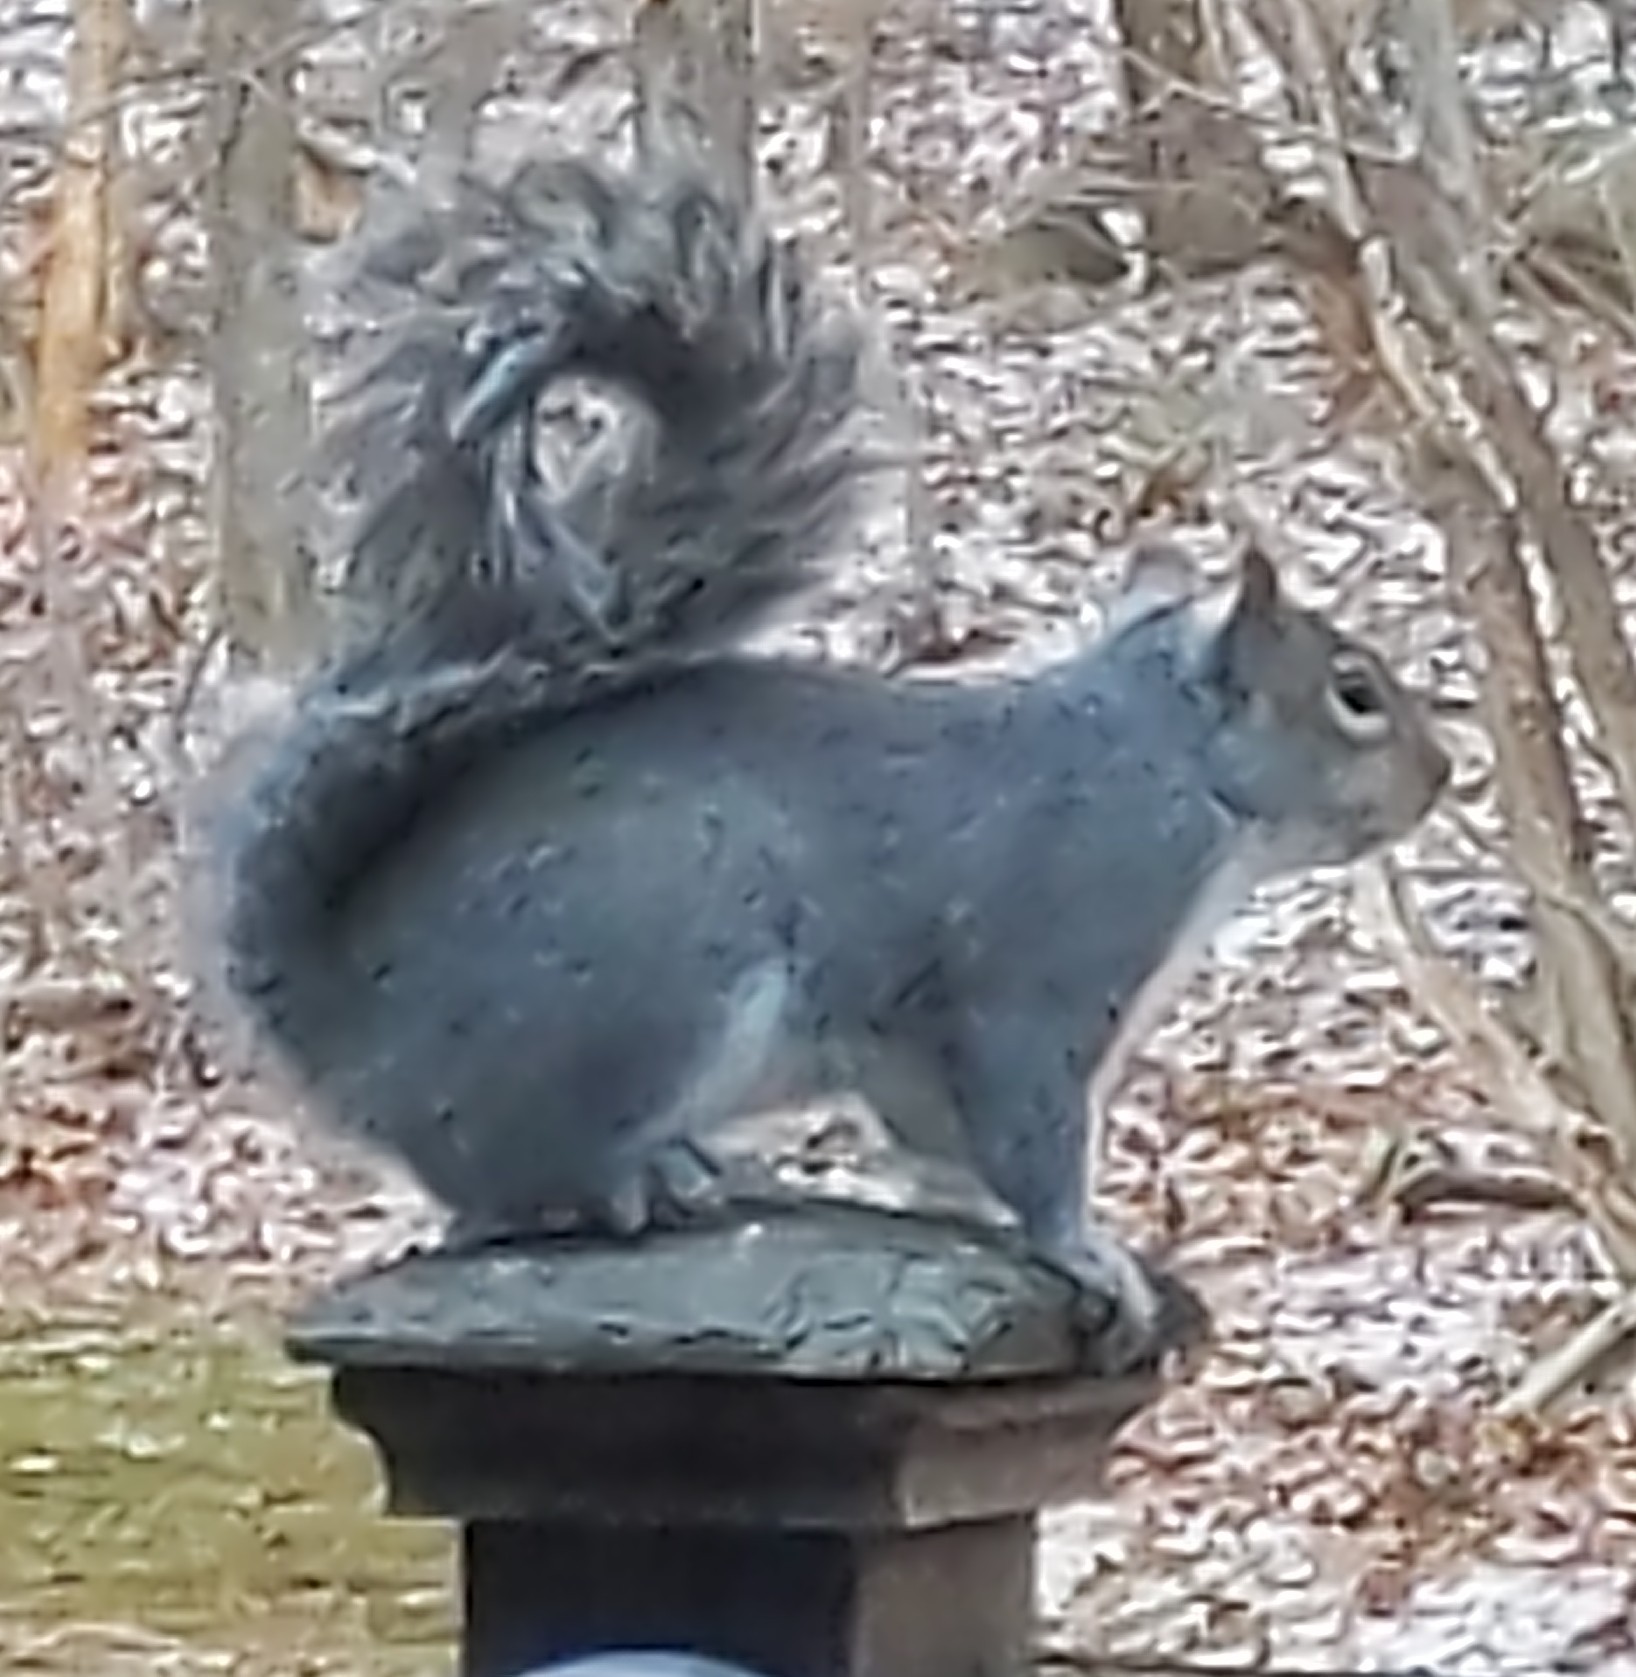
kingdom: Animalia
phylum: Chordata
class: Mammalia
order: Rodentia
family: Sciuridae
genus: Sciurus
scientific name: Sciurus carolinensis
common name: Eastern gray squirrel
